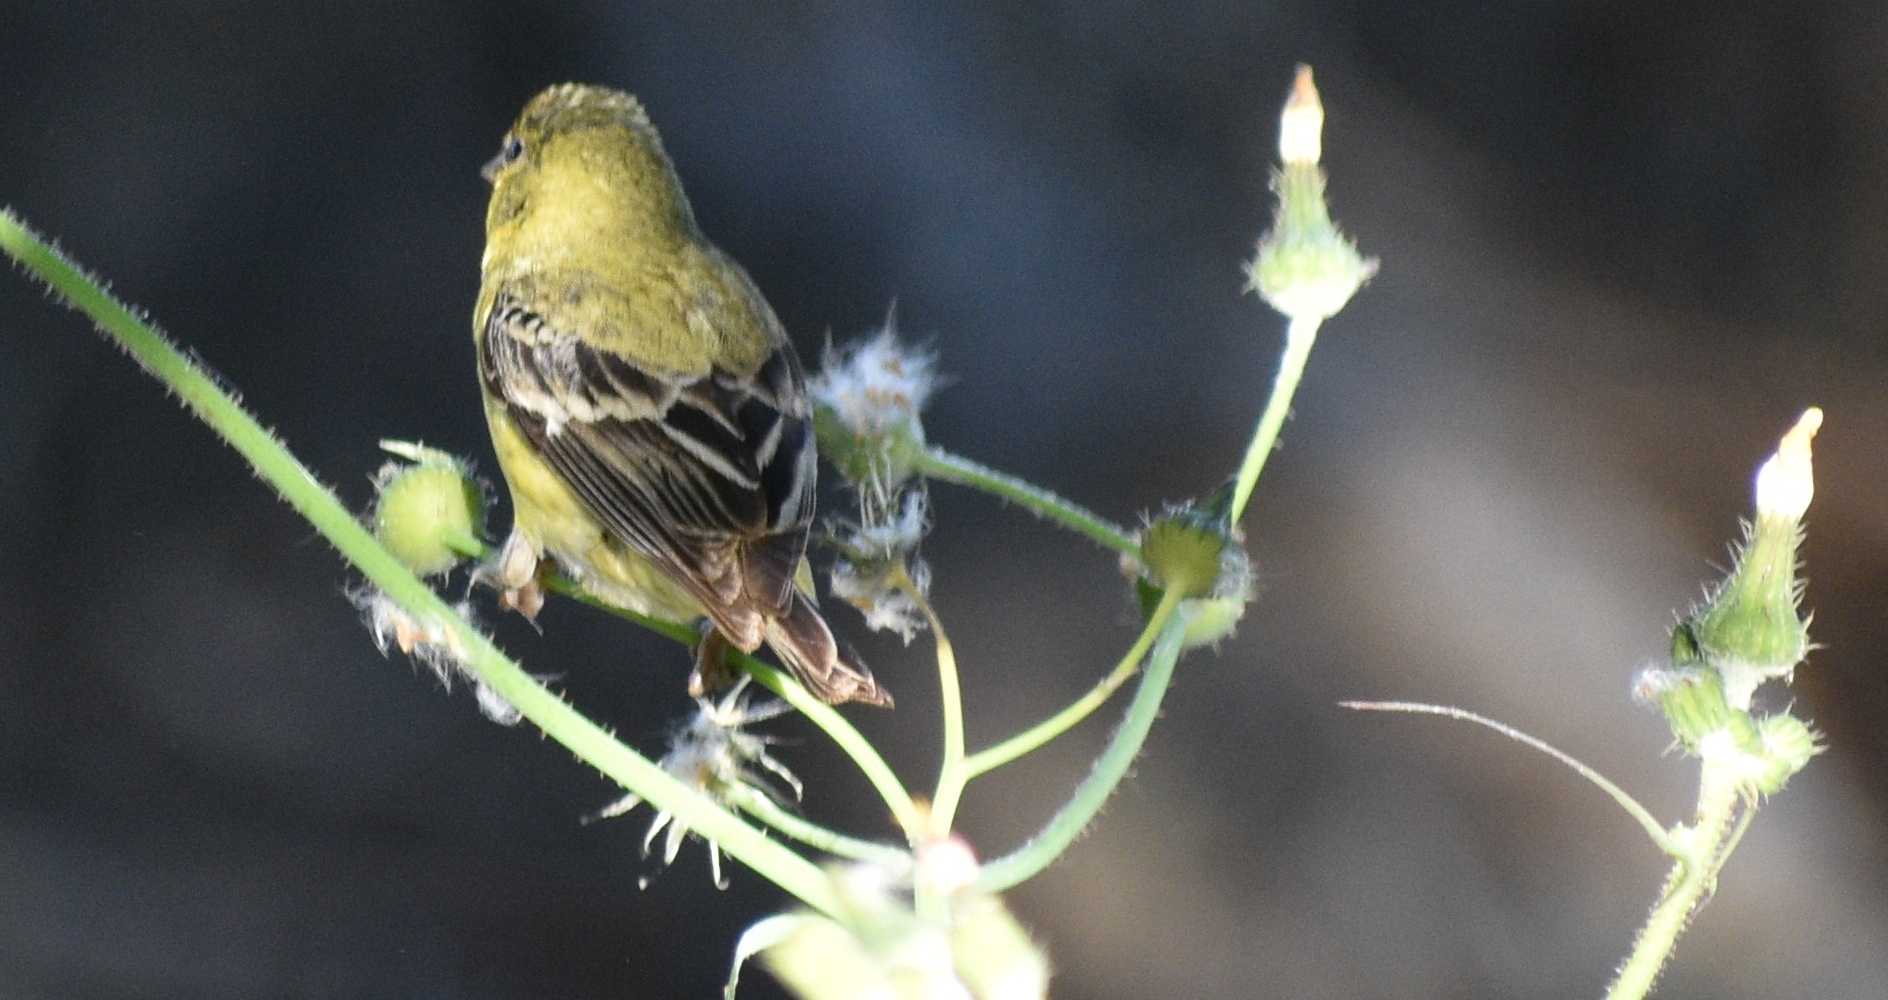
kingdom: Animalia
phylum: Chordata
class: Aves
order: Passeriformes
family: Fringillidae
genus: Spinus
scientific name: Spinus psaltria
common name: Lesser goldfinch
